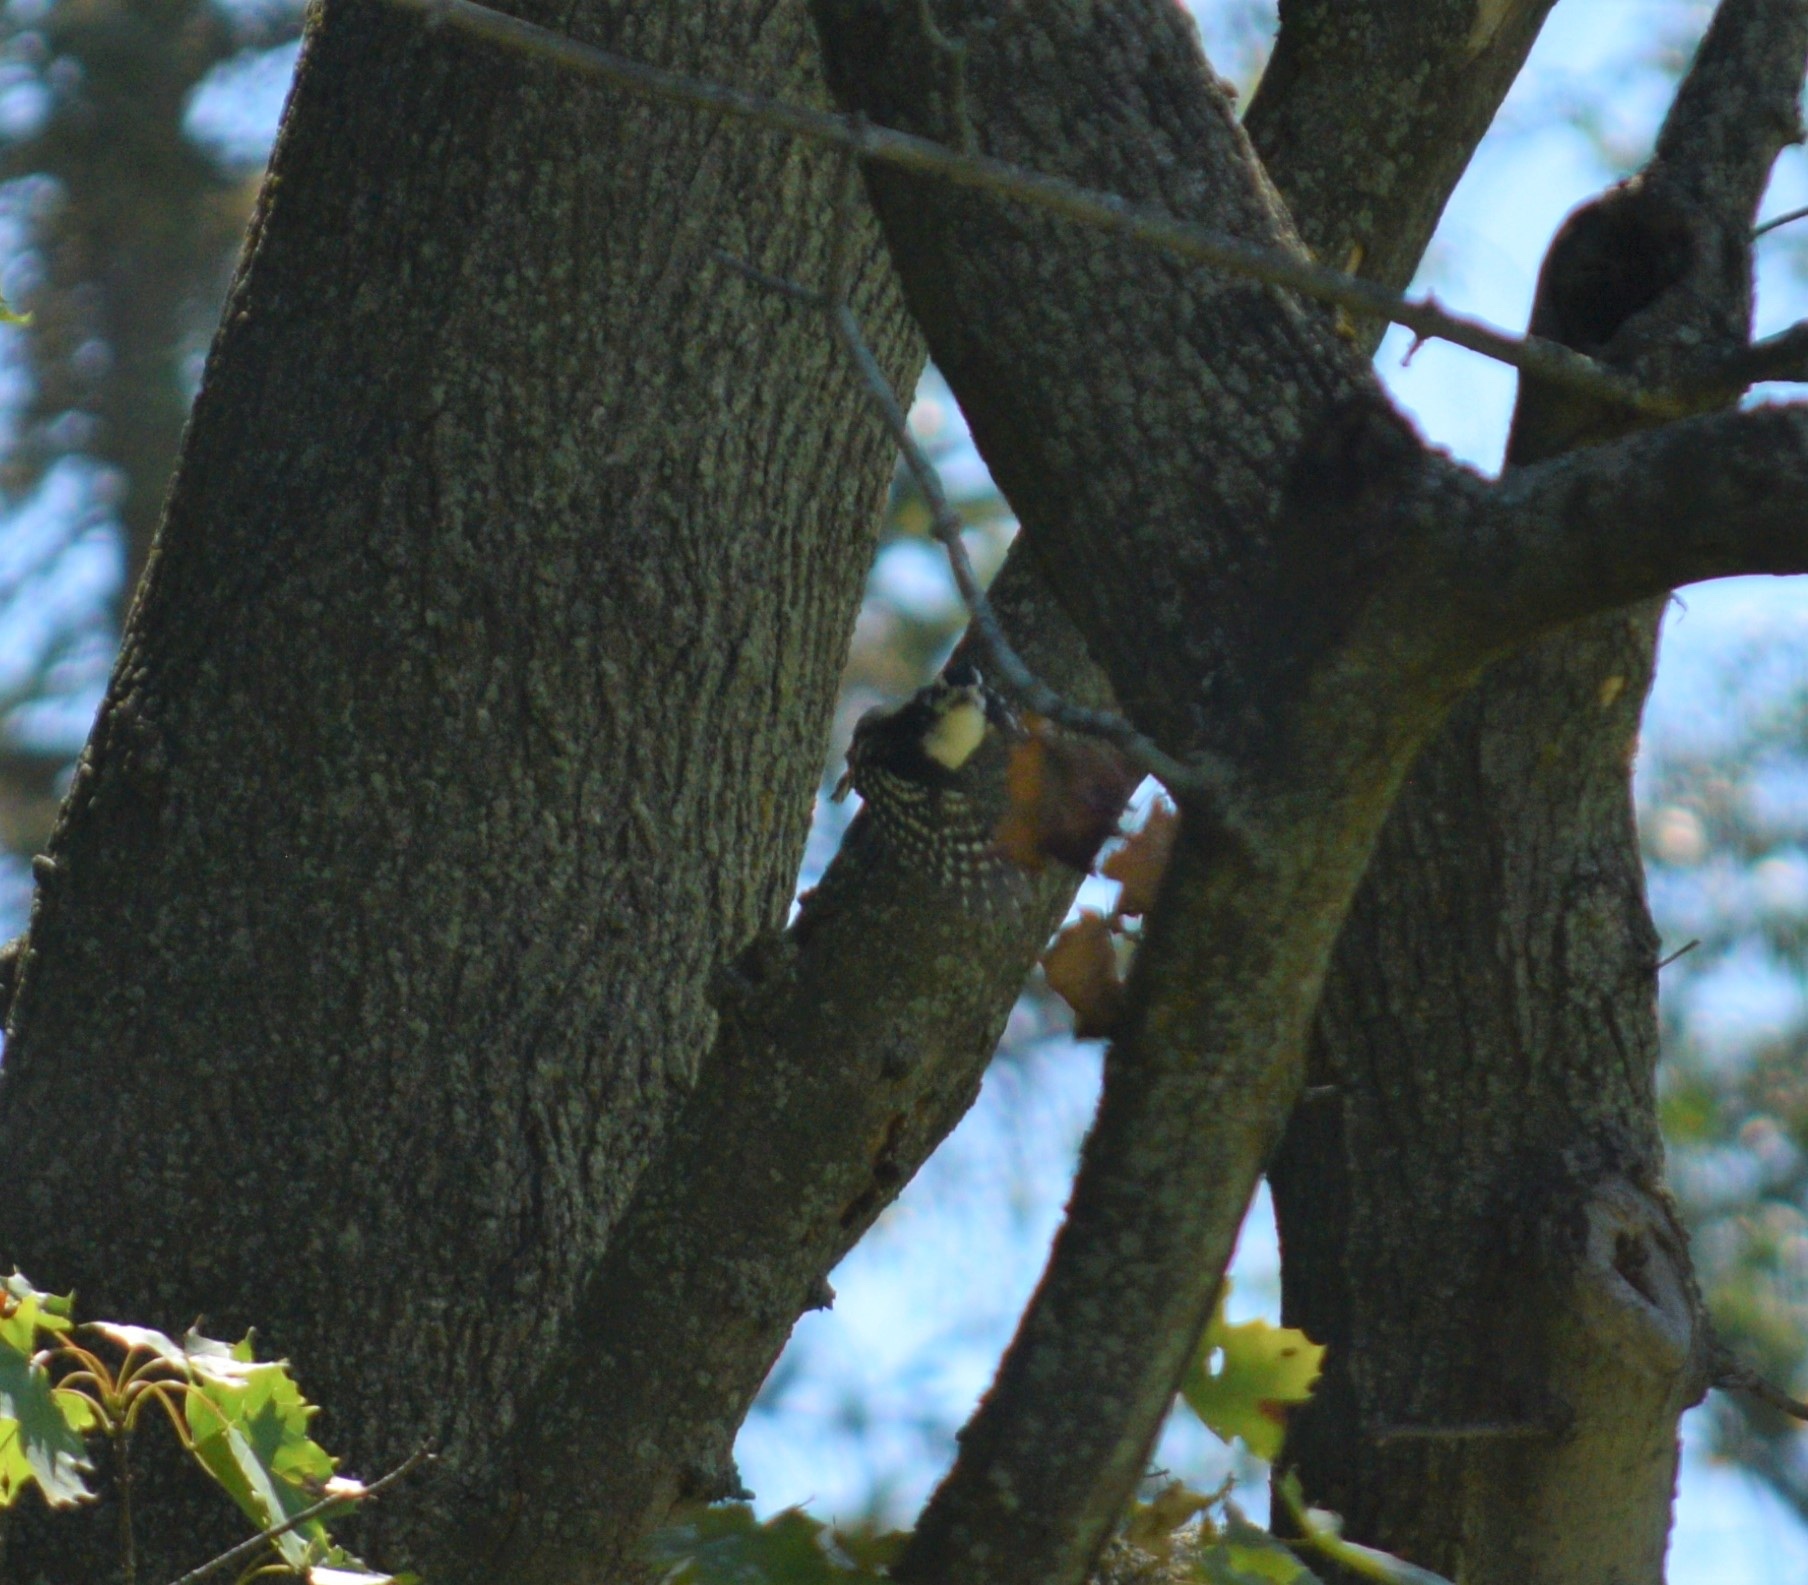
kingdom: Animalia
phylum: Chordata
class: Aves
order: Piciformes
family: Picidae
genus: Dryobates
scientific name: Dryobates pubescens
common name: Downy woodpecker
